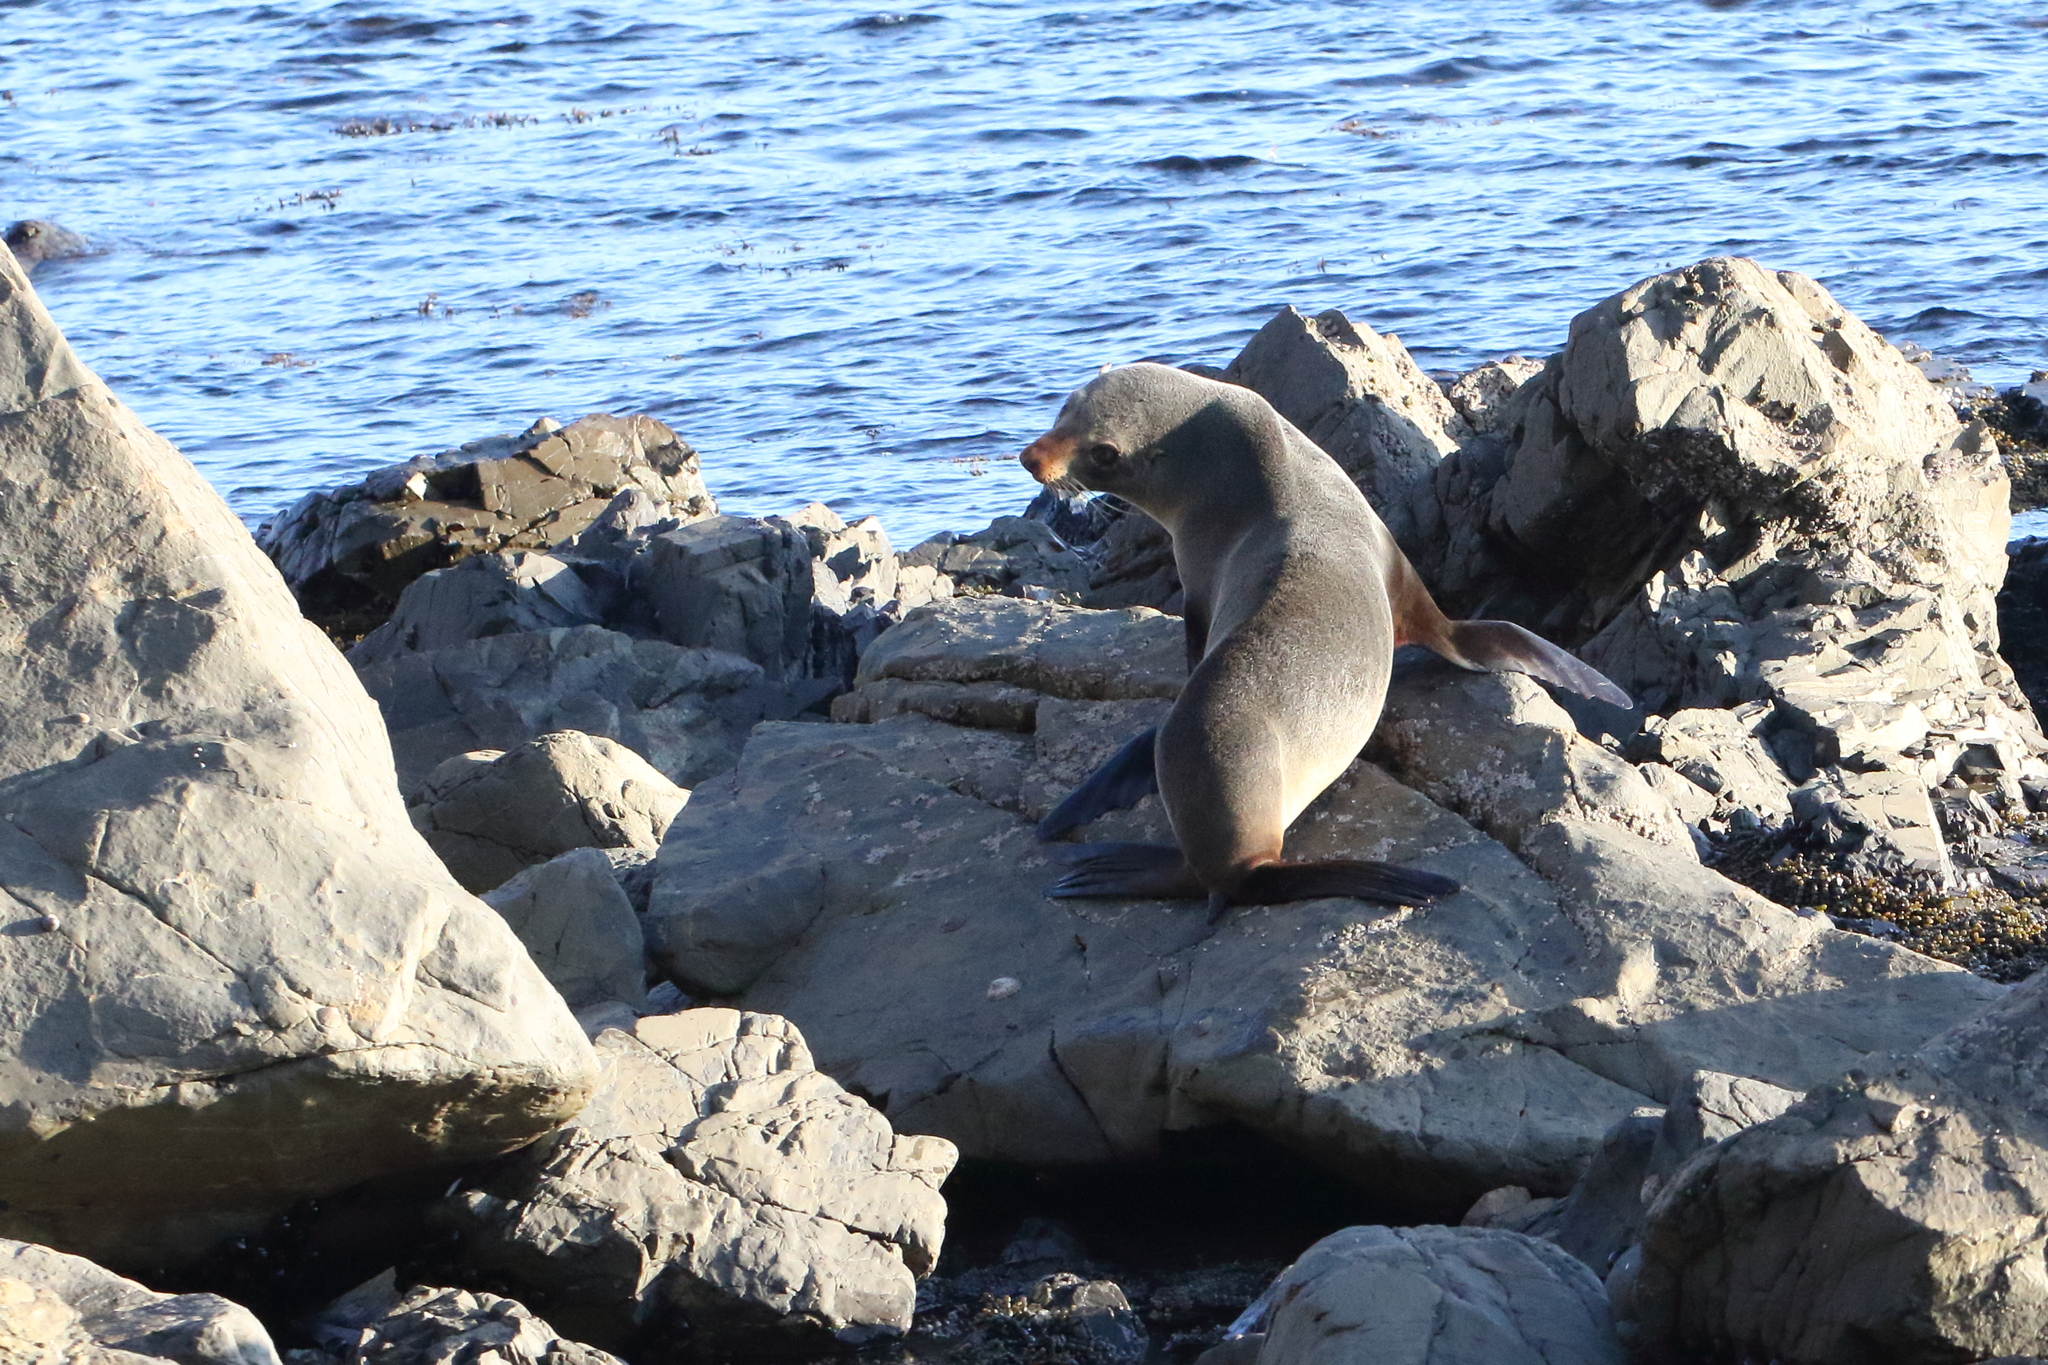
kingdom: Animalia
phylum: Chordata
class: Mammalia
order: Carnivora
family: Otariidae
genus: Arctocephalus
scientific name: Arctocephalus forsteri
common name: New zealand fur seal
